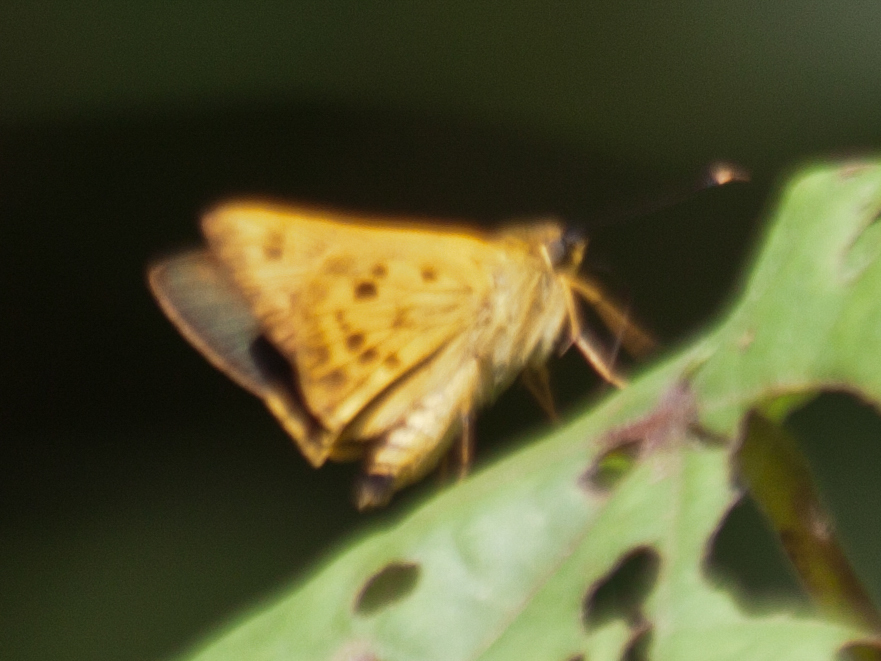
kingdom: Animalia
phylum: Arthropoda
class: Insecta
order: Lepidoptera
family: Hesperiidae
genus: Thoressa
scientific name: Thoressa masoni
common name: Golden ace
